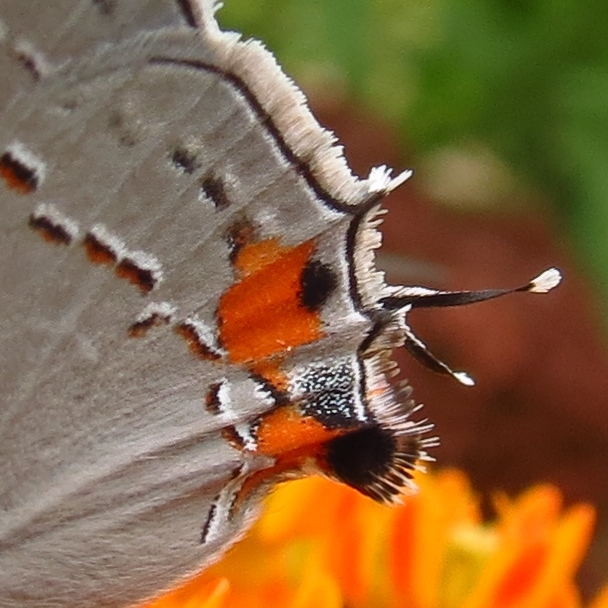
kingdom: Animalia
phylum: Arthropoda
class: Insecta
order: Lepidoptera
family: Lycaenidae
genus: Strymon
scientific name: Strymon melinus
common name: Gray hairstreak
